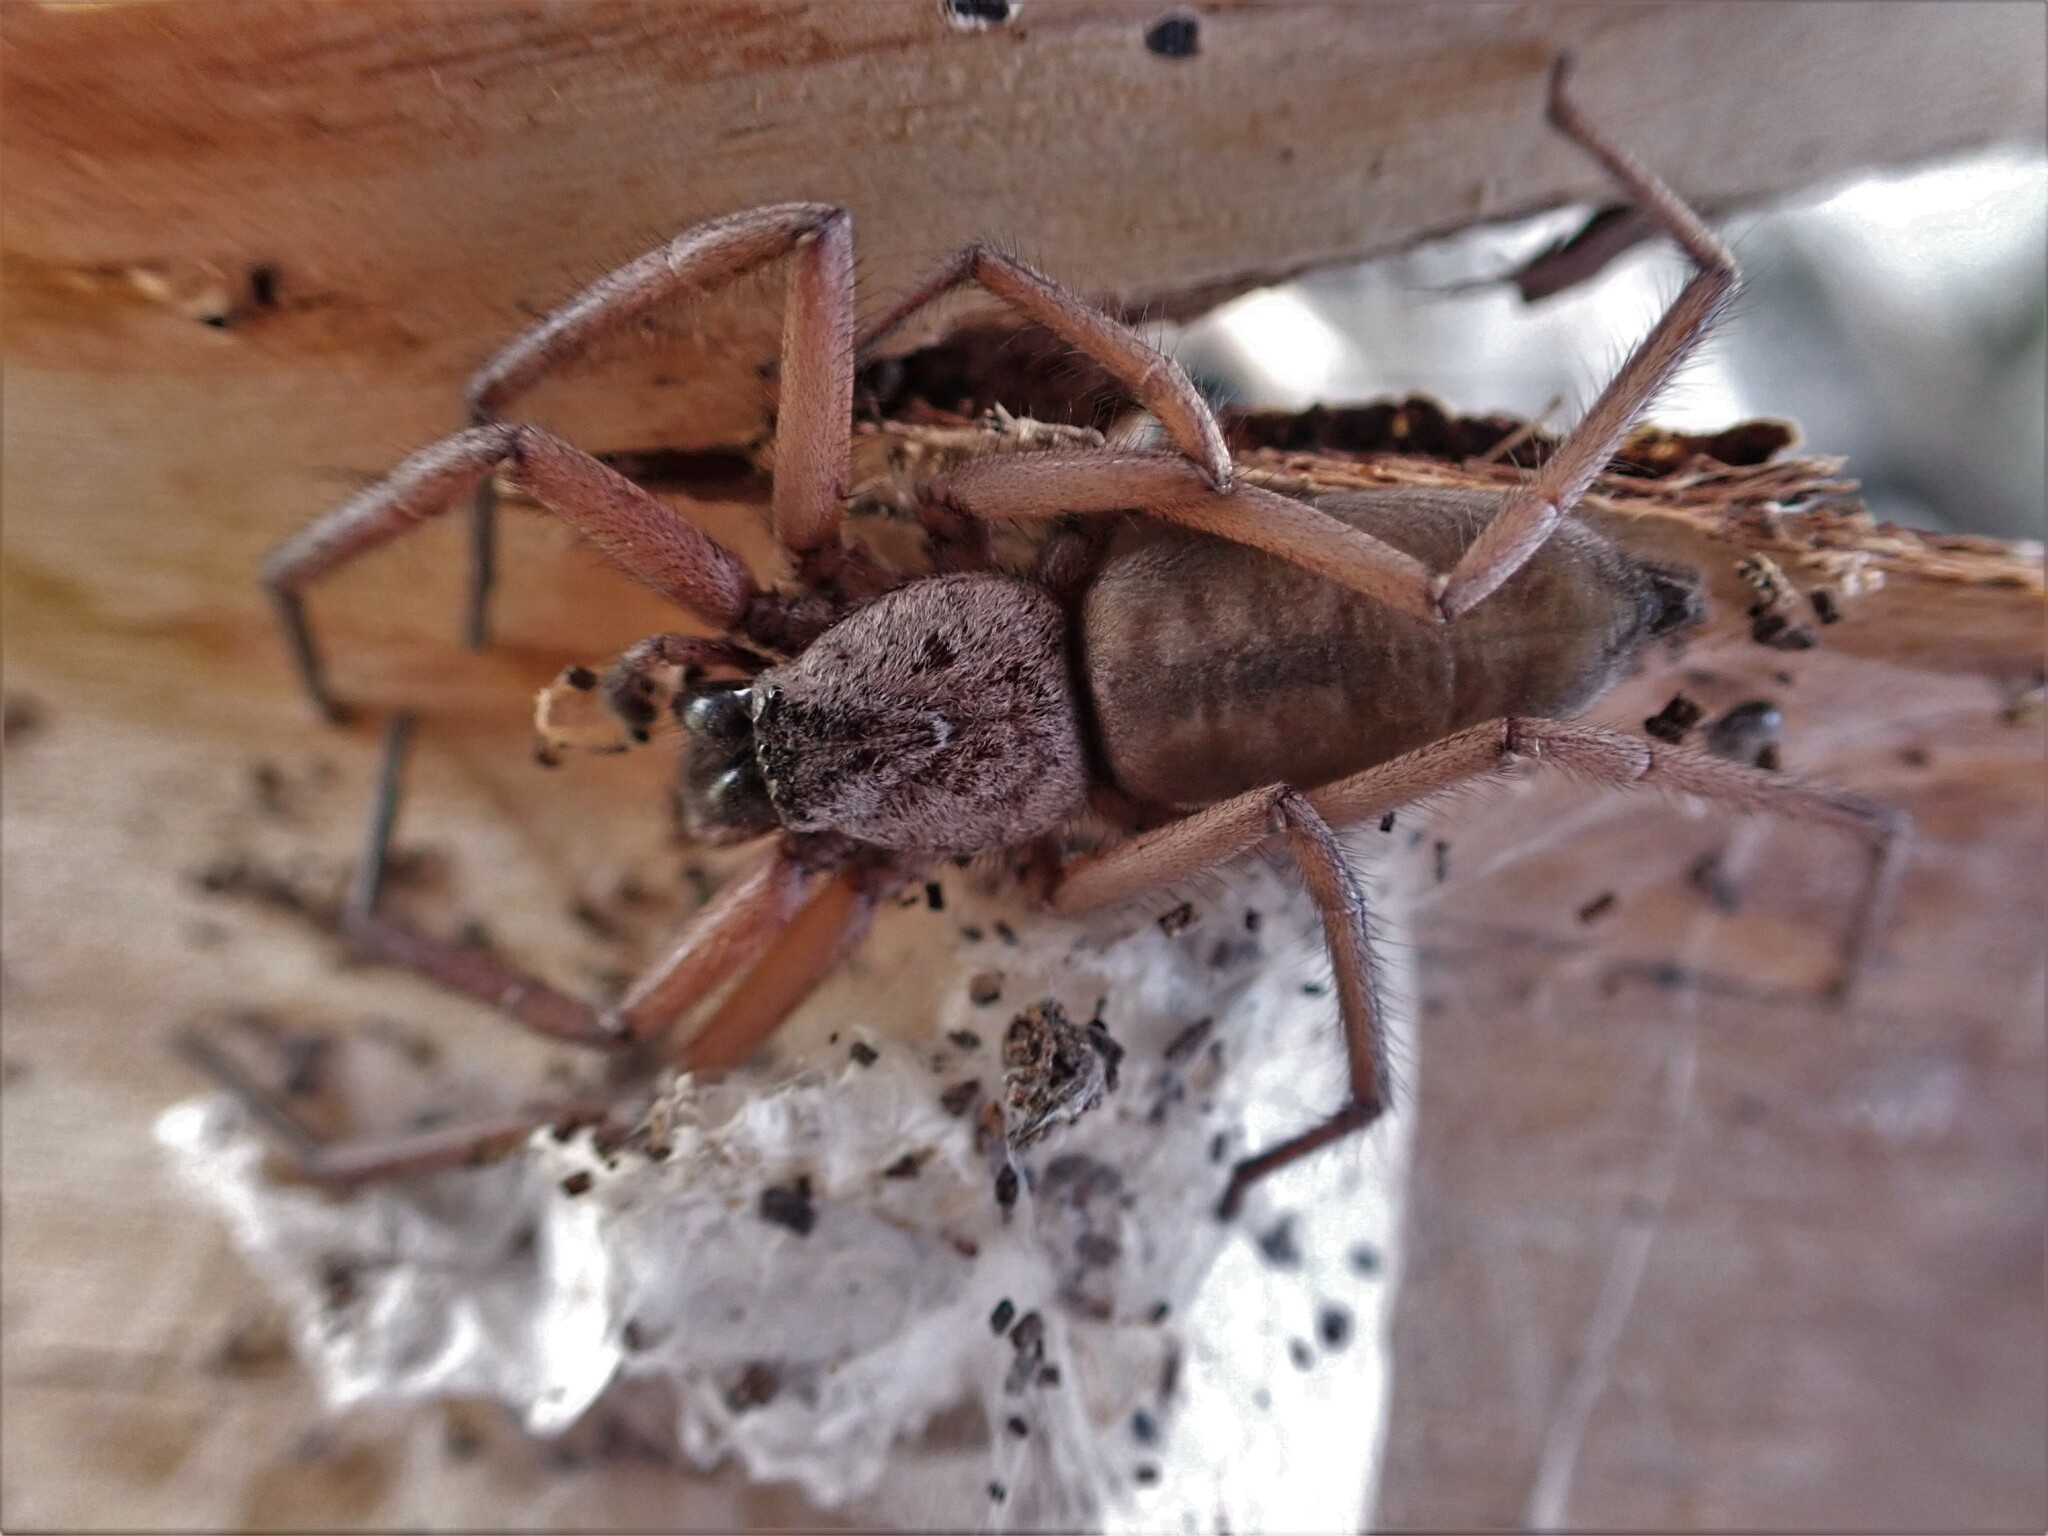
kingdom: Animalia
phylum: Arthropoda
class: Arachnida
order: Araneae
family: Trochanteriidae
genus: Hemicloea
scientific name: Hemicloea rogenhoferi
